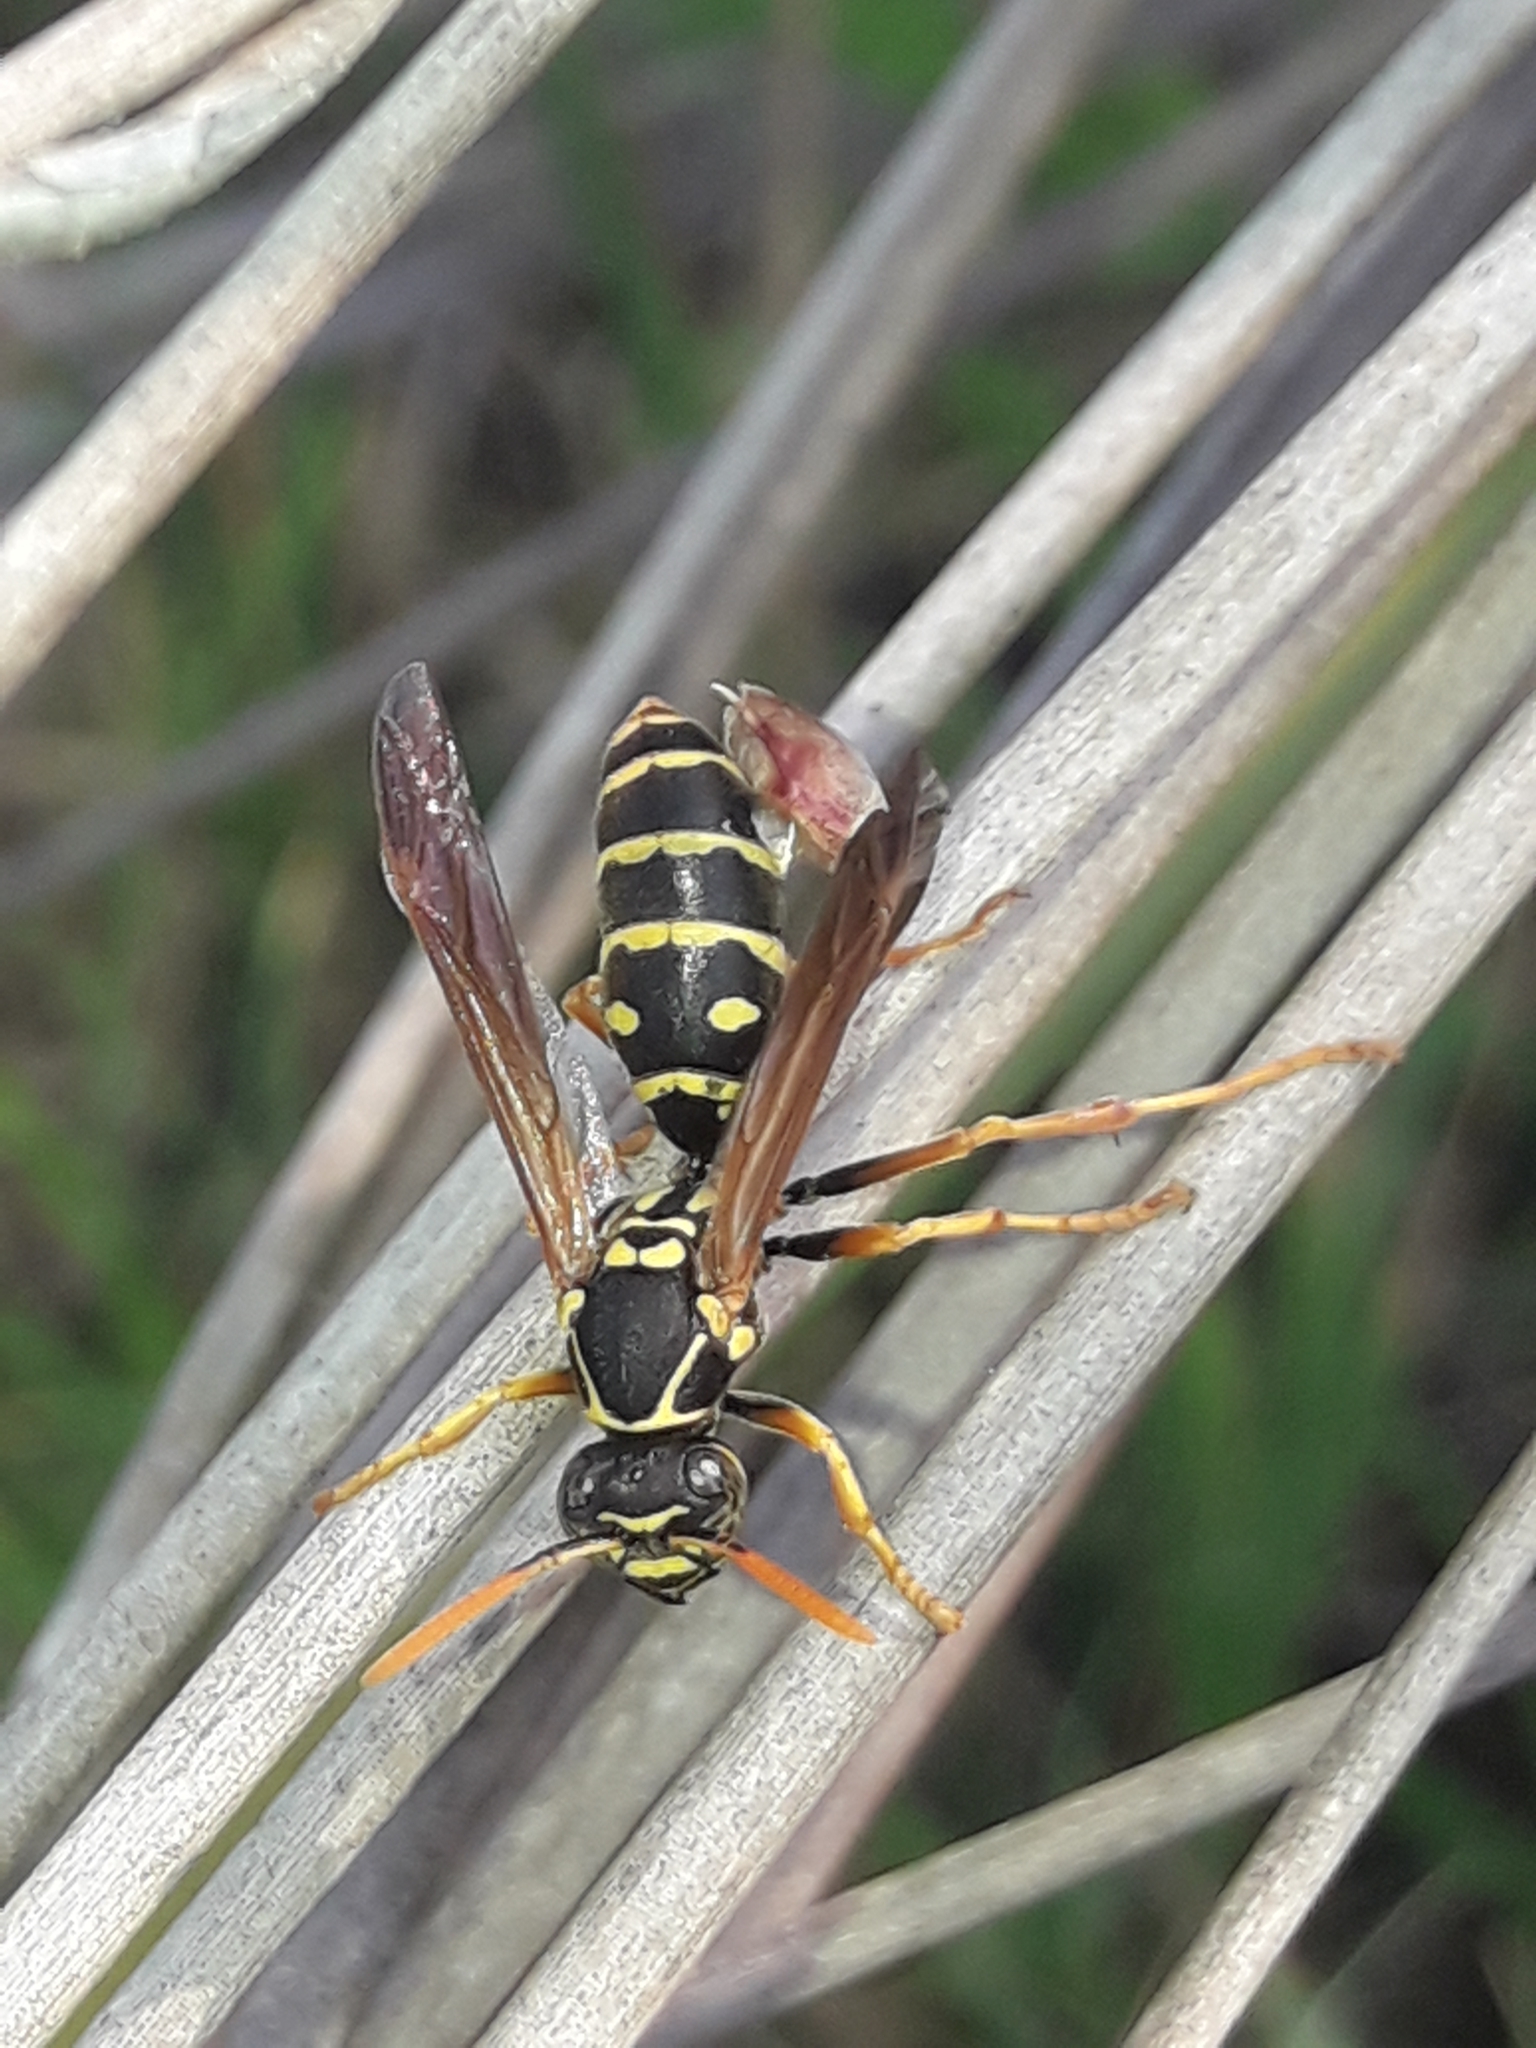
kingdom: Animalia
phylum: Arthropoda
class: Insecta
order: Hymenoptera
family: Eumenidae
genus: Polistes
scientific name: Polistes chinensis
